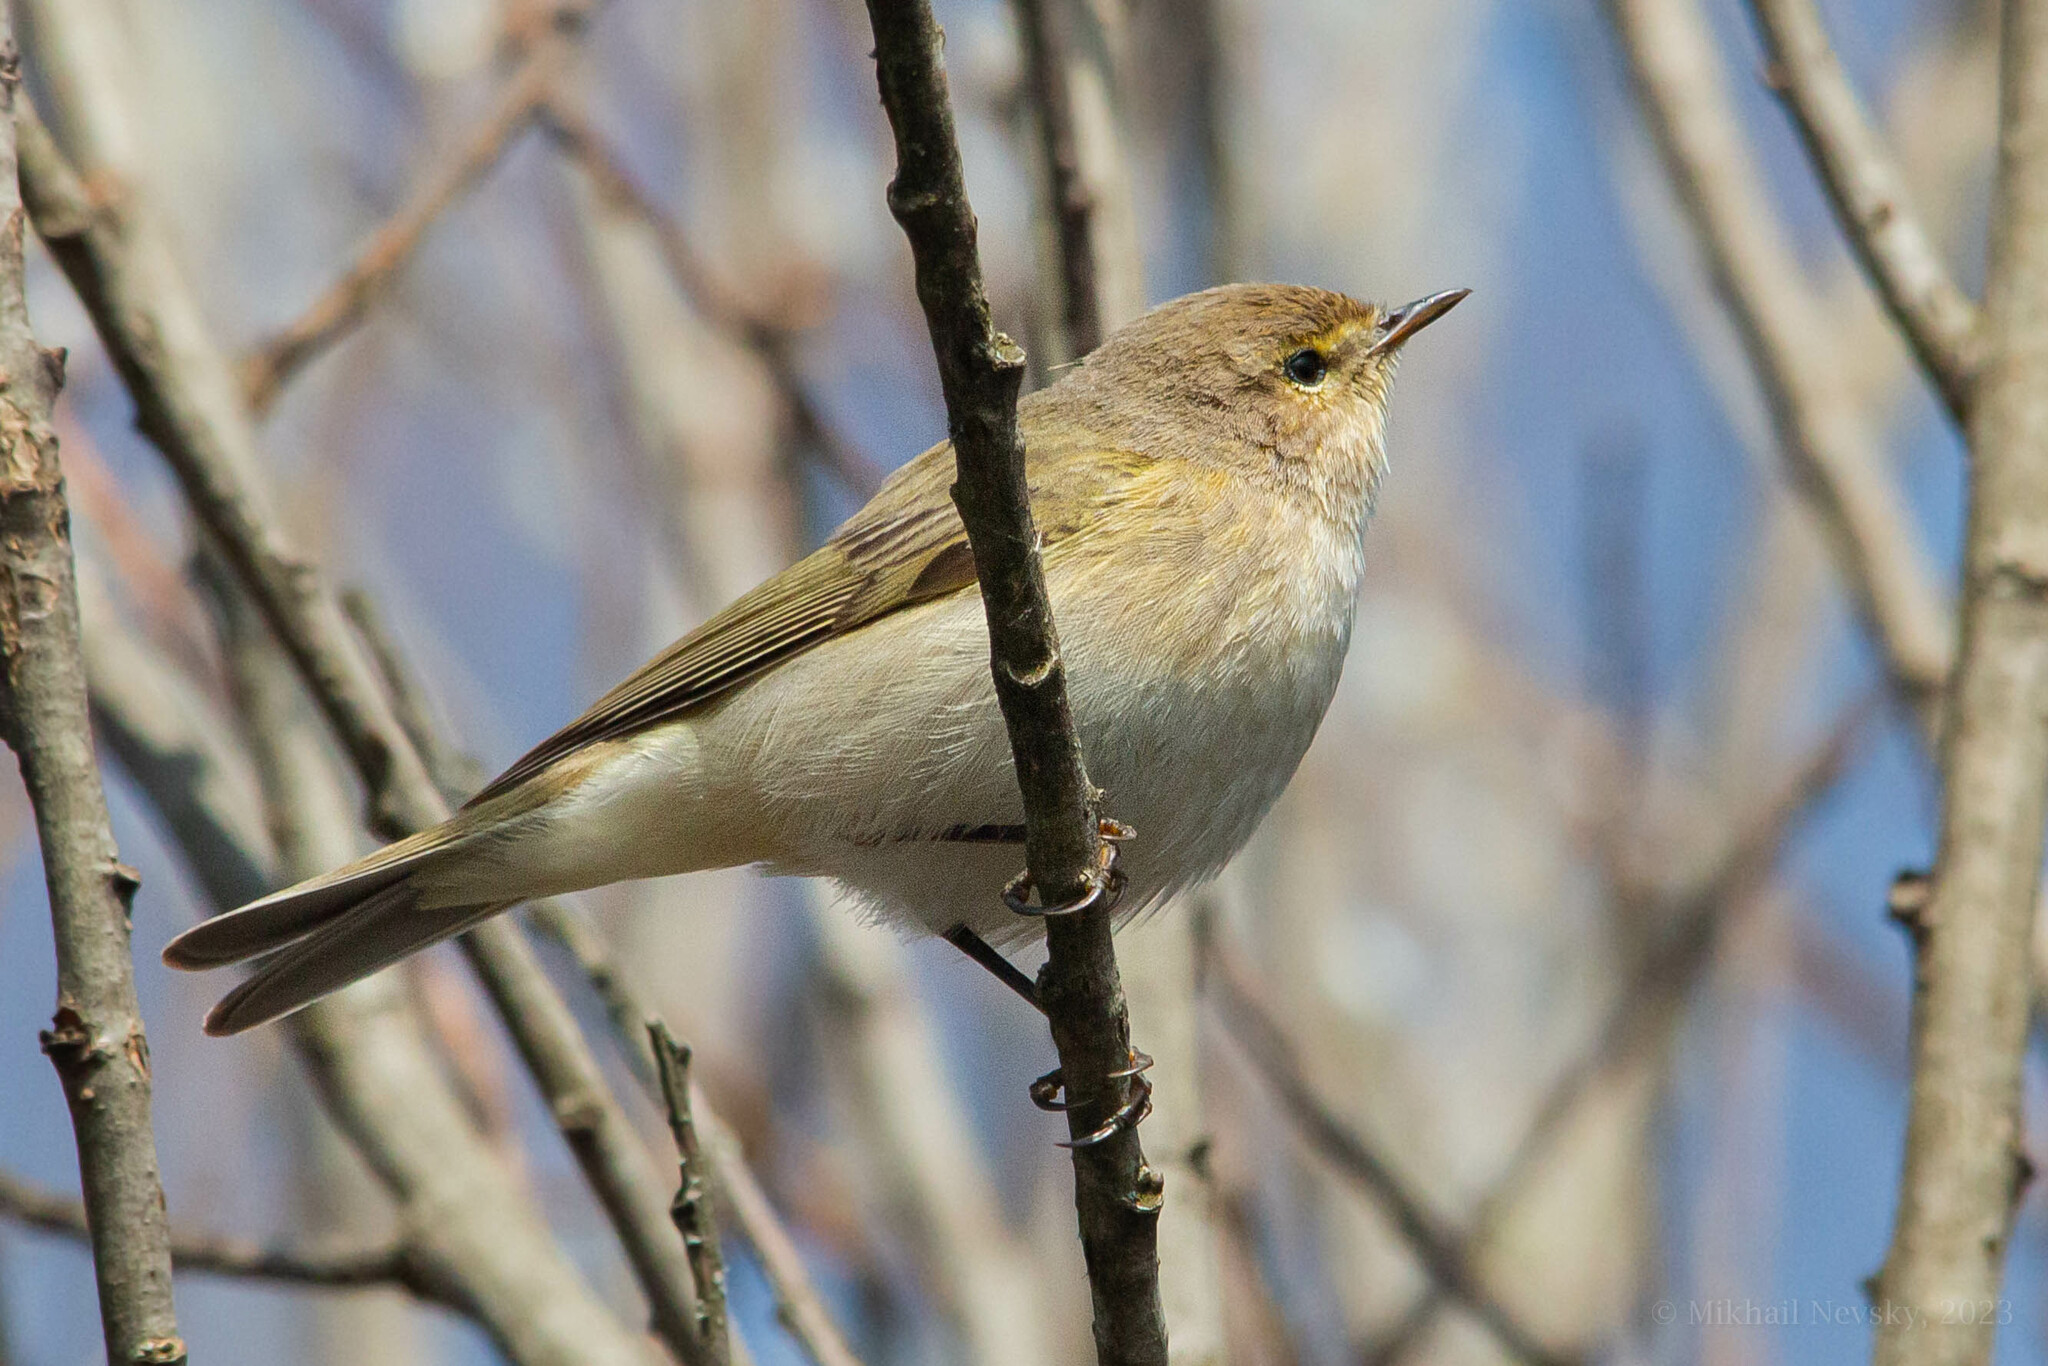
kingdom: Animalia
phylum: Chordata
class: Aves
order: Passeriformes
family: Phylloscopidae
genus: Phylloscopus
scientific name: Phylloscopus collybita
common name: Common chiffchaff
